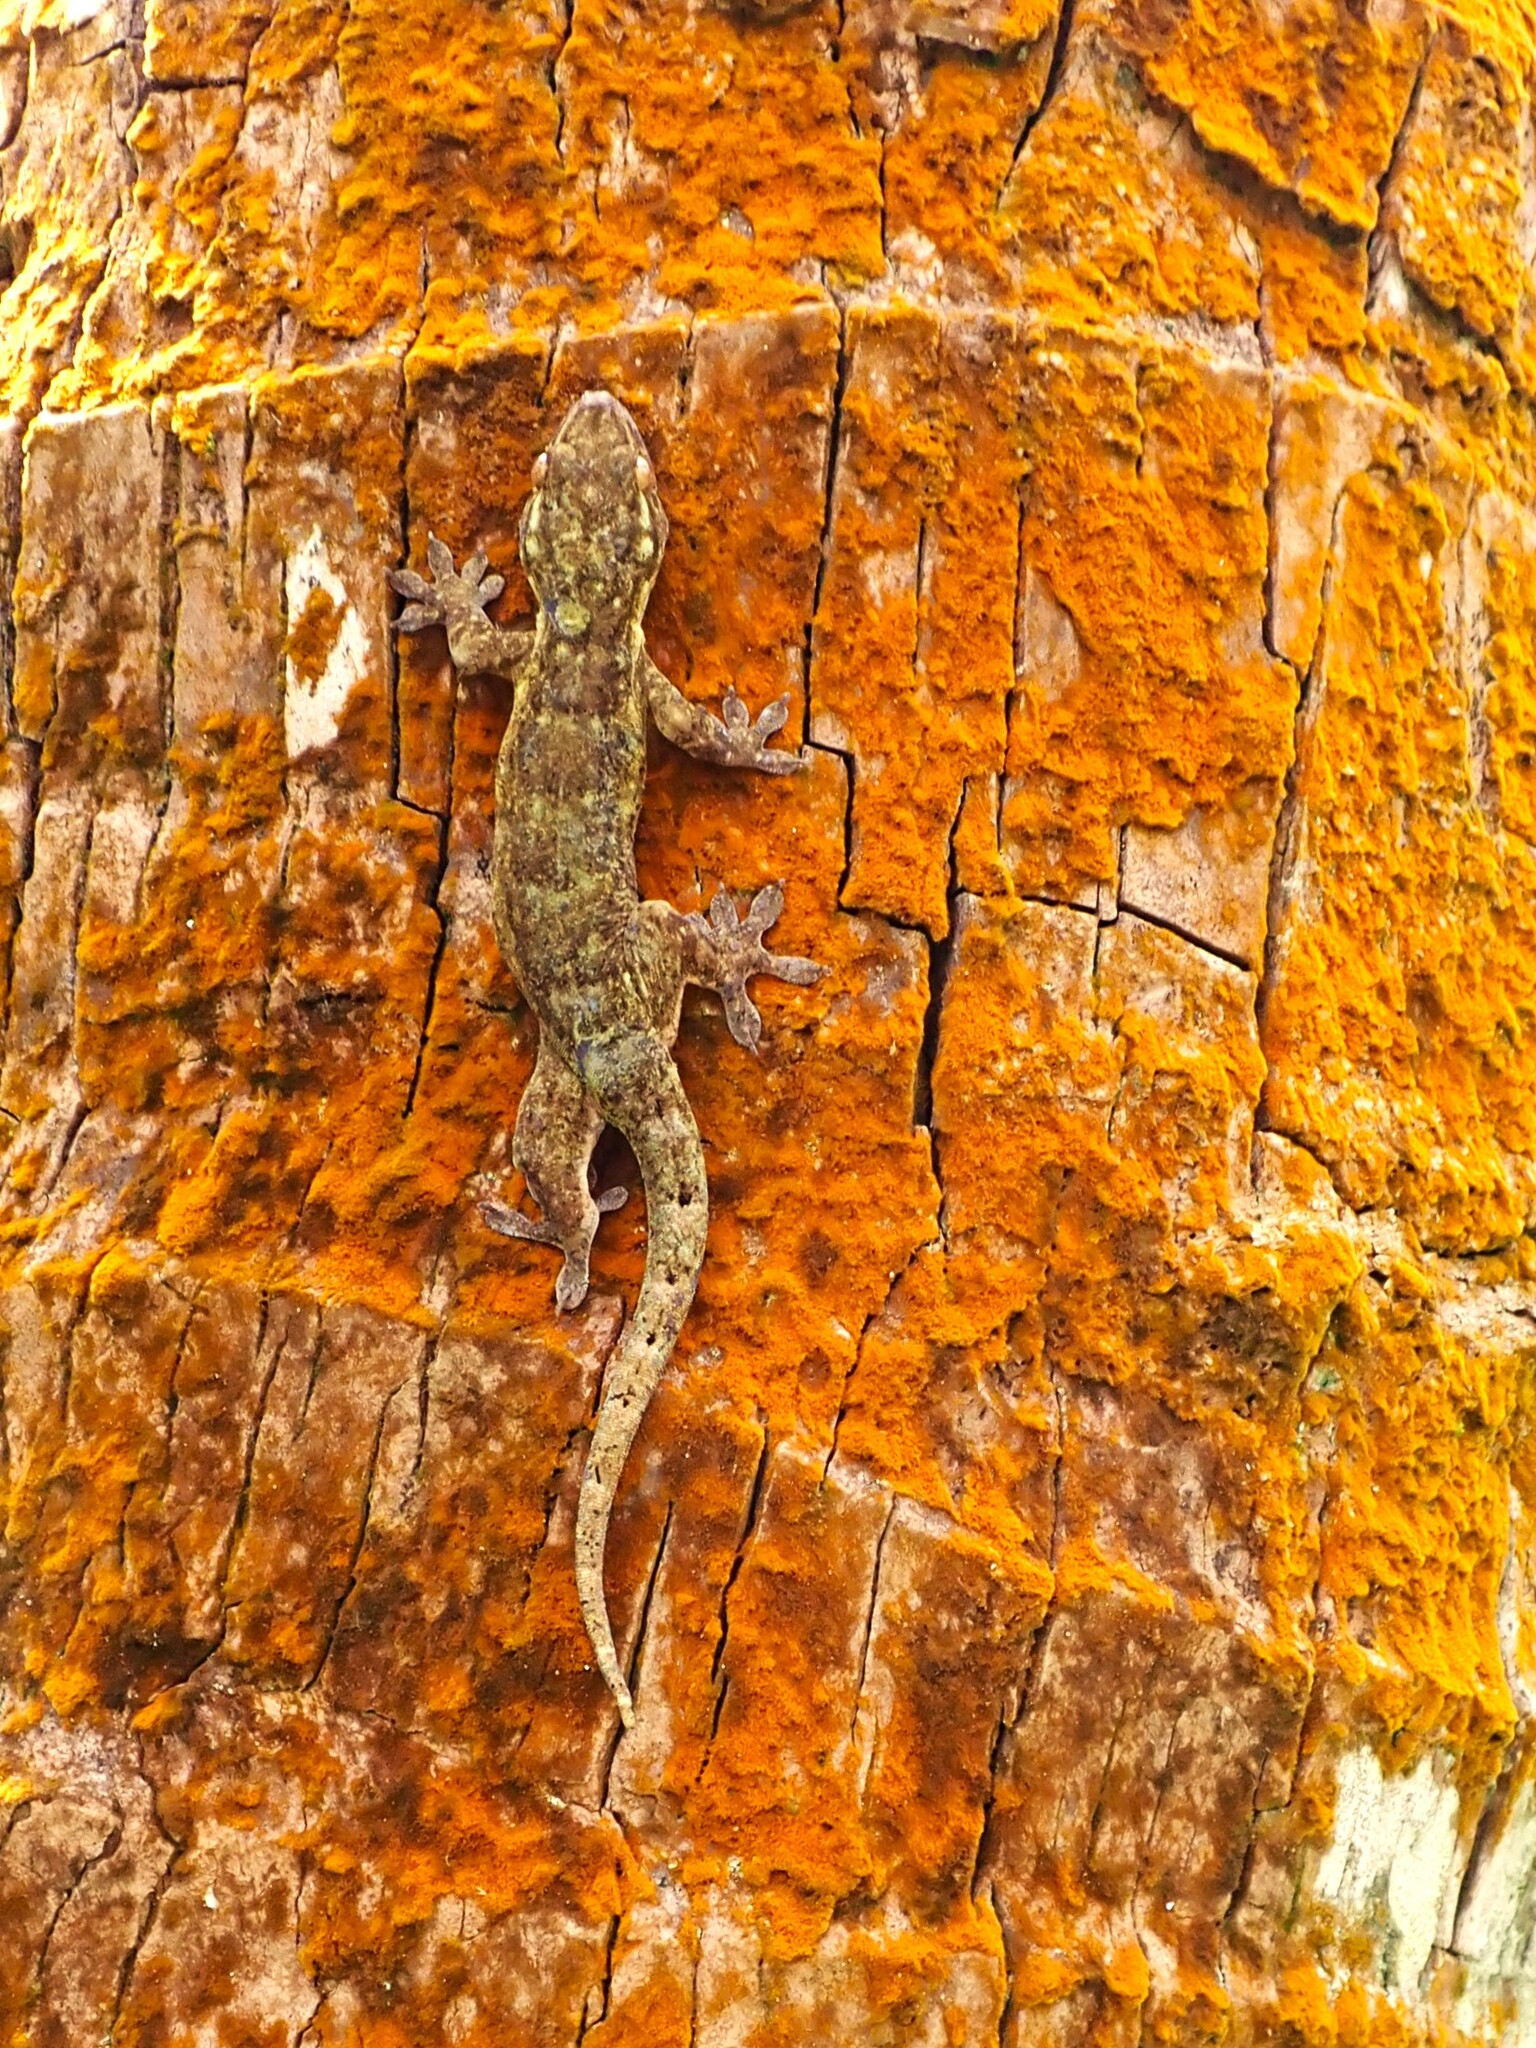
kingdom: Animalia
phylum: Chordata
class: Squamata
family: Gekkonidae
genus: Gehyra
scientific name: Gehyra oceanica
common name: Pacific dtella
